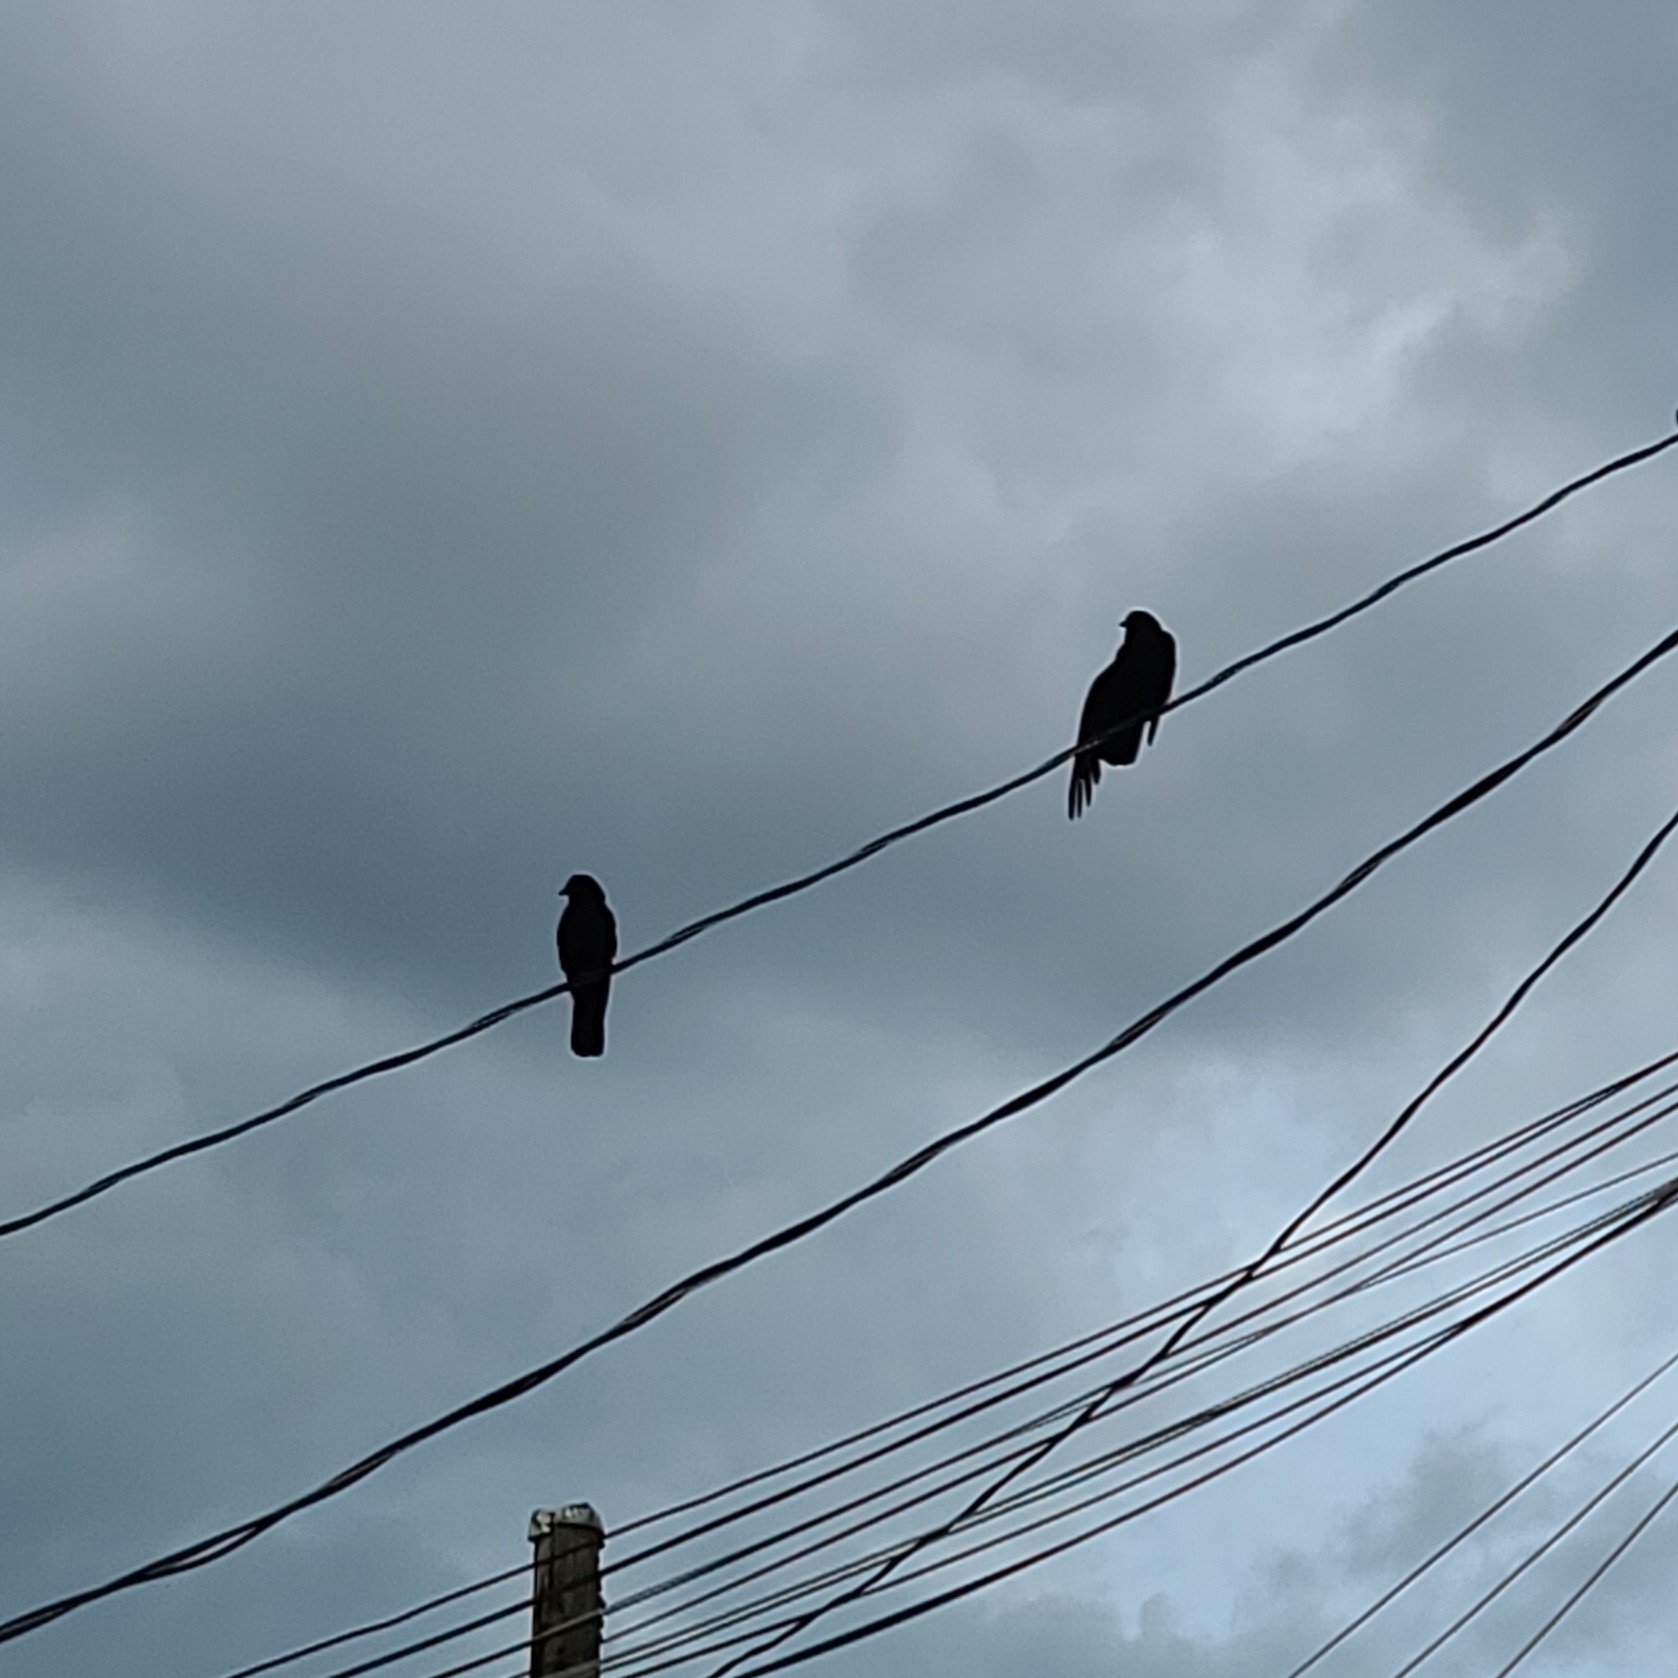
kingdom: Animalia
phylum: Chordata
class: Aves
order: Passeriformes
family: Corvidae
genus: Corvus
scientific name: Corvus brachyrhynchos
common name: American crow
